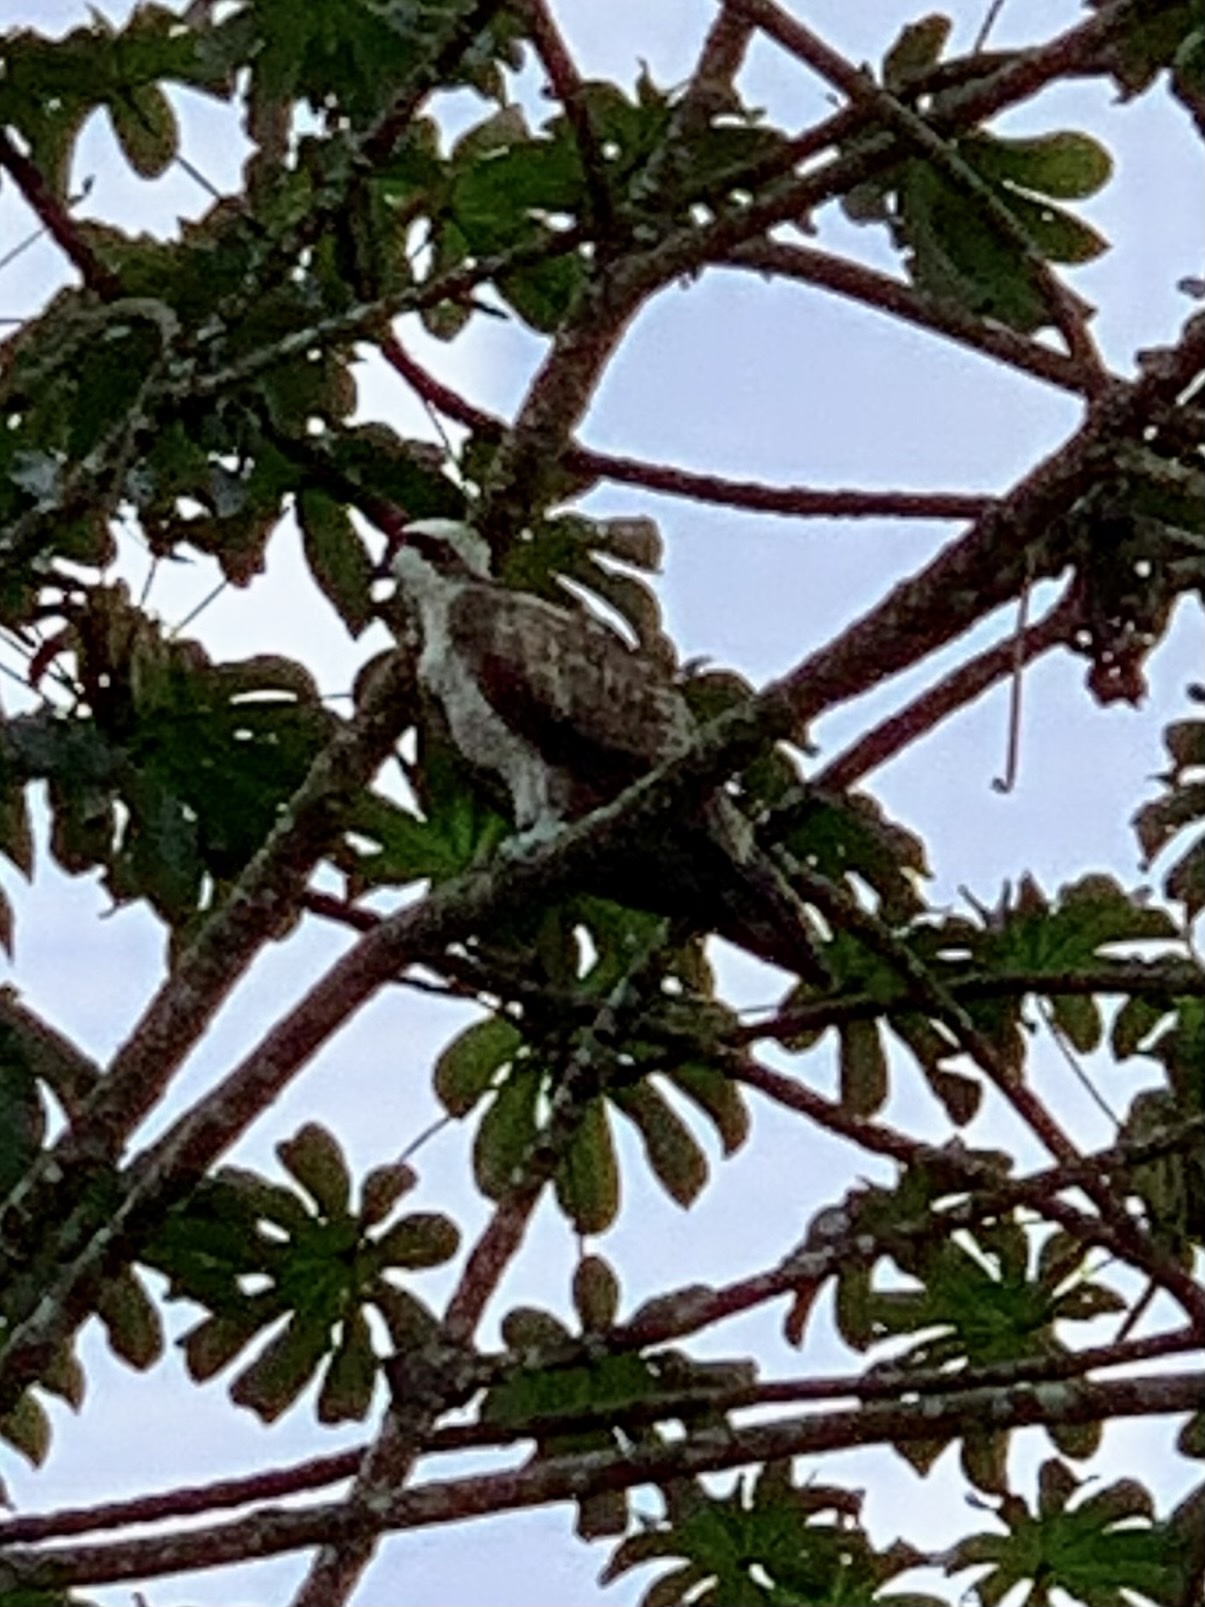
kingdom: Animalia
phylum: Chordata
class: Aves
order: Accipitriformes
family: Pandionidae
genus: Pandion
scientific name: Pandion haliaetus
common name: Osprey
